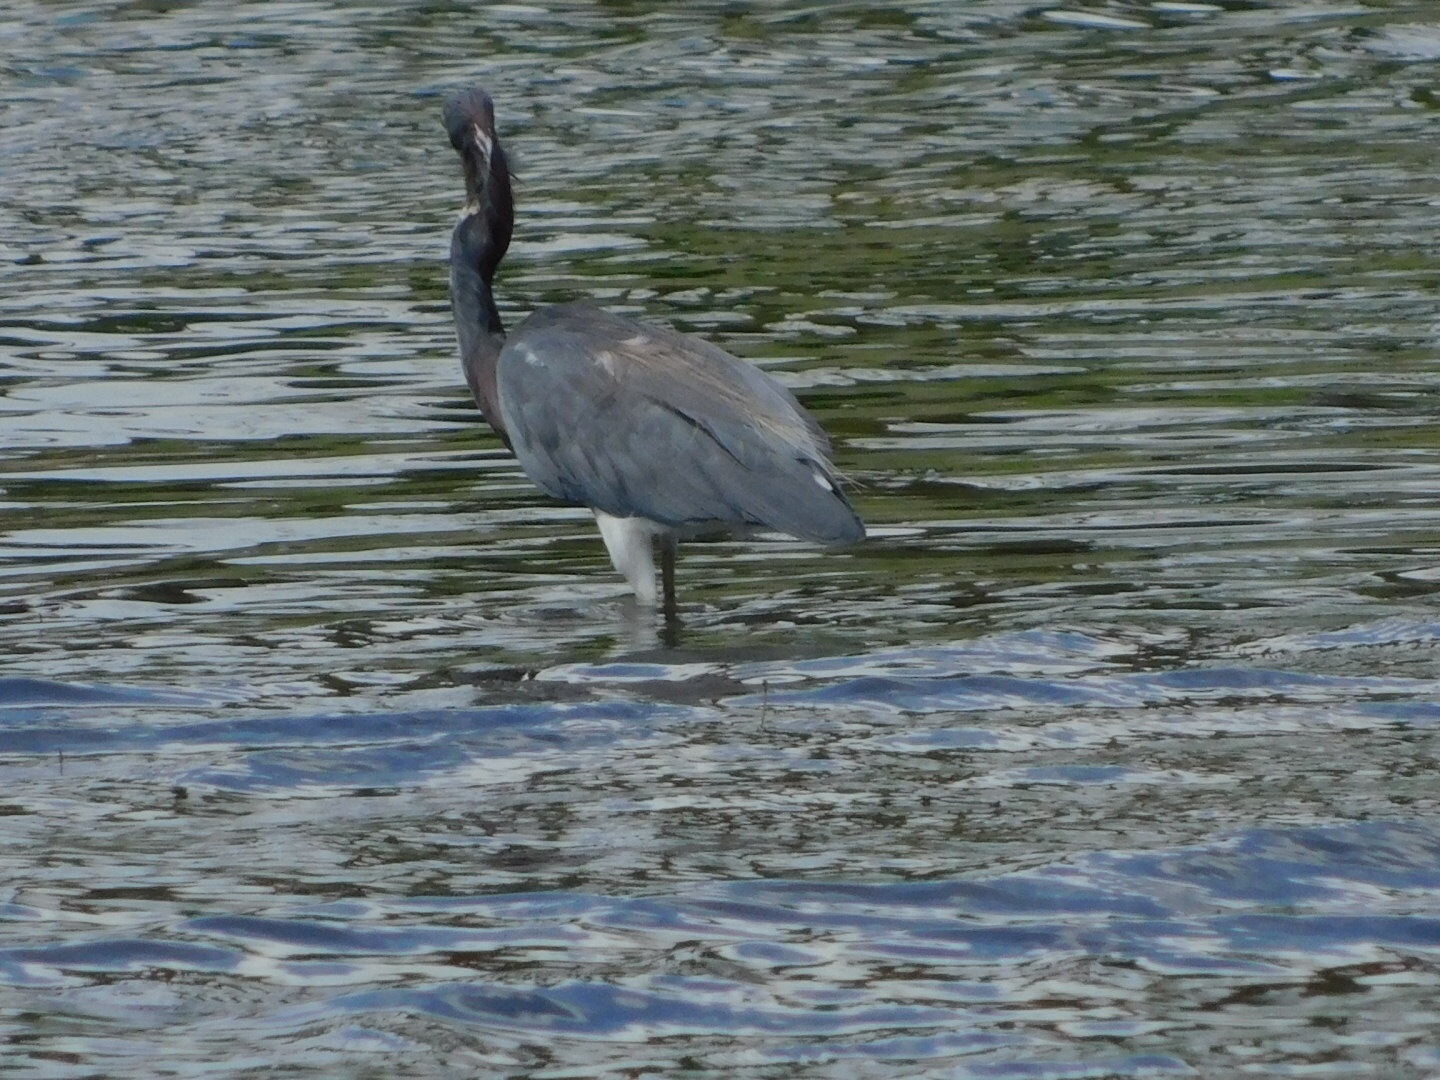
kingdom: Animalia
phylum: Chordata
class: Aves
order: Pelecaniformes
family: Ardeidae
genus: Egretta
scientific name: Egretta tricolor
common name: Tricolored heron
